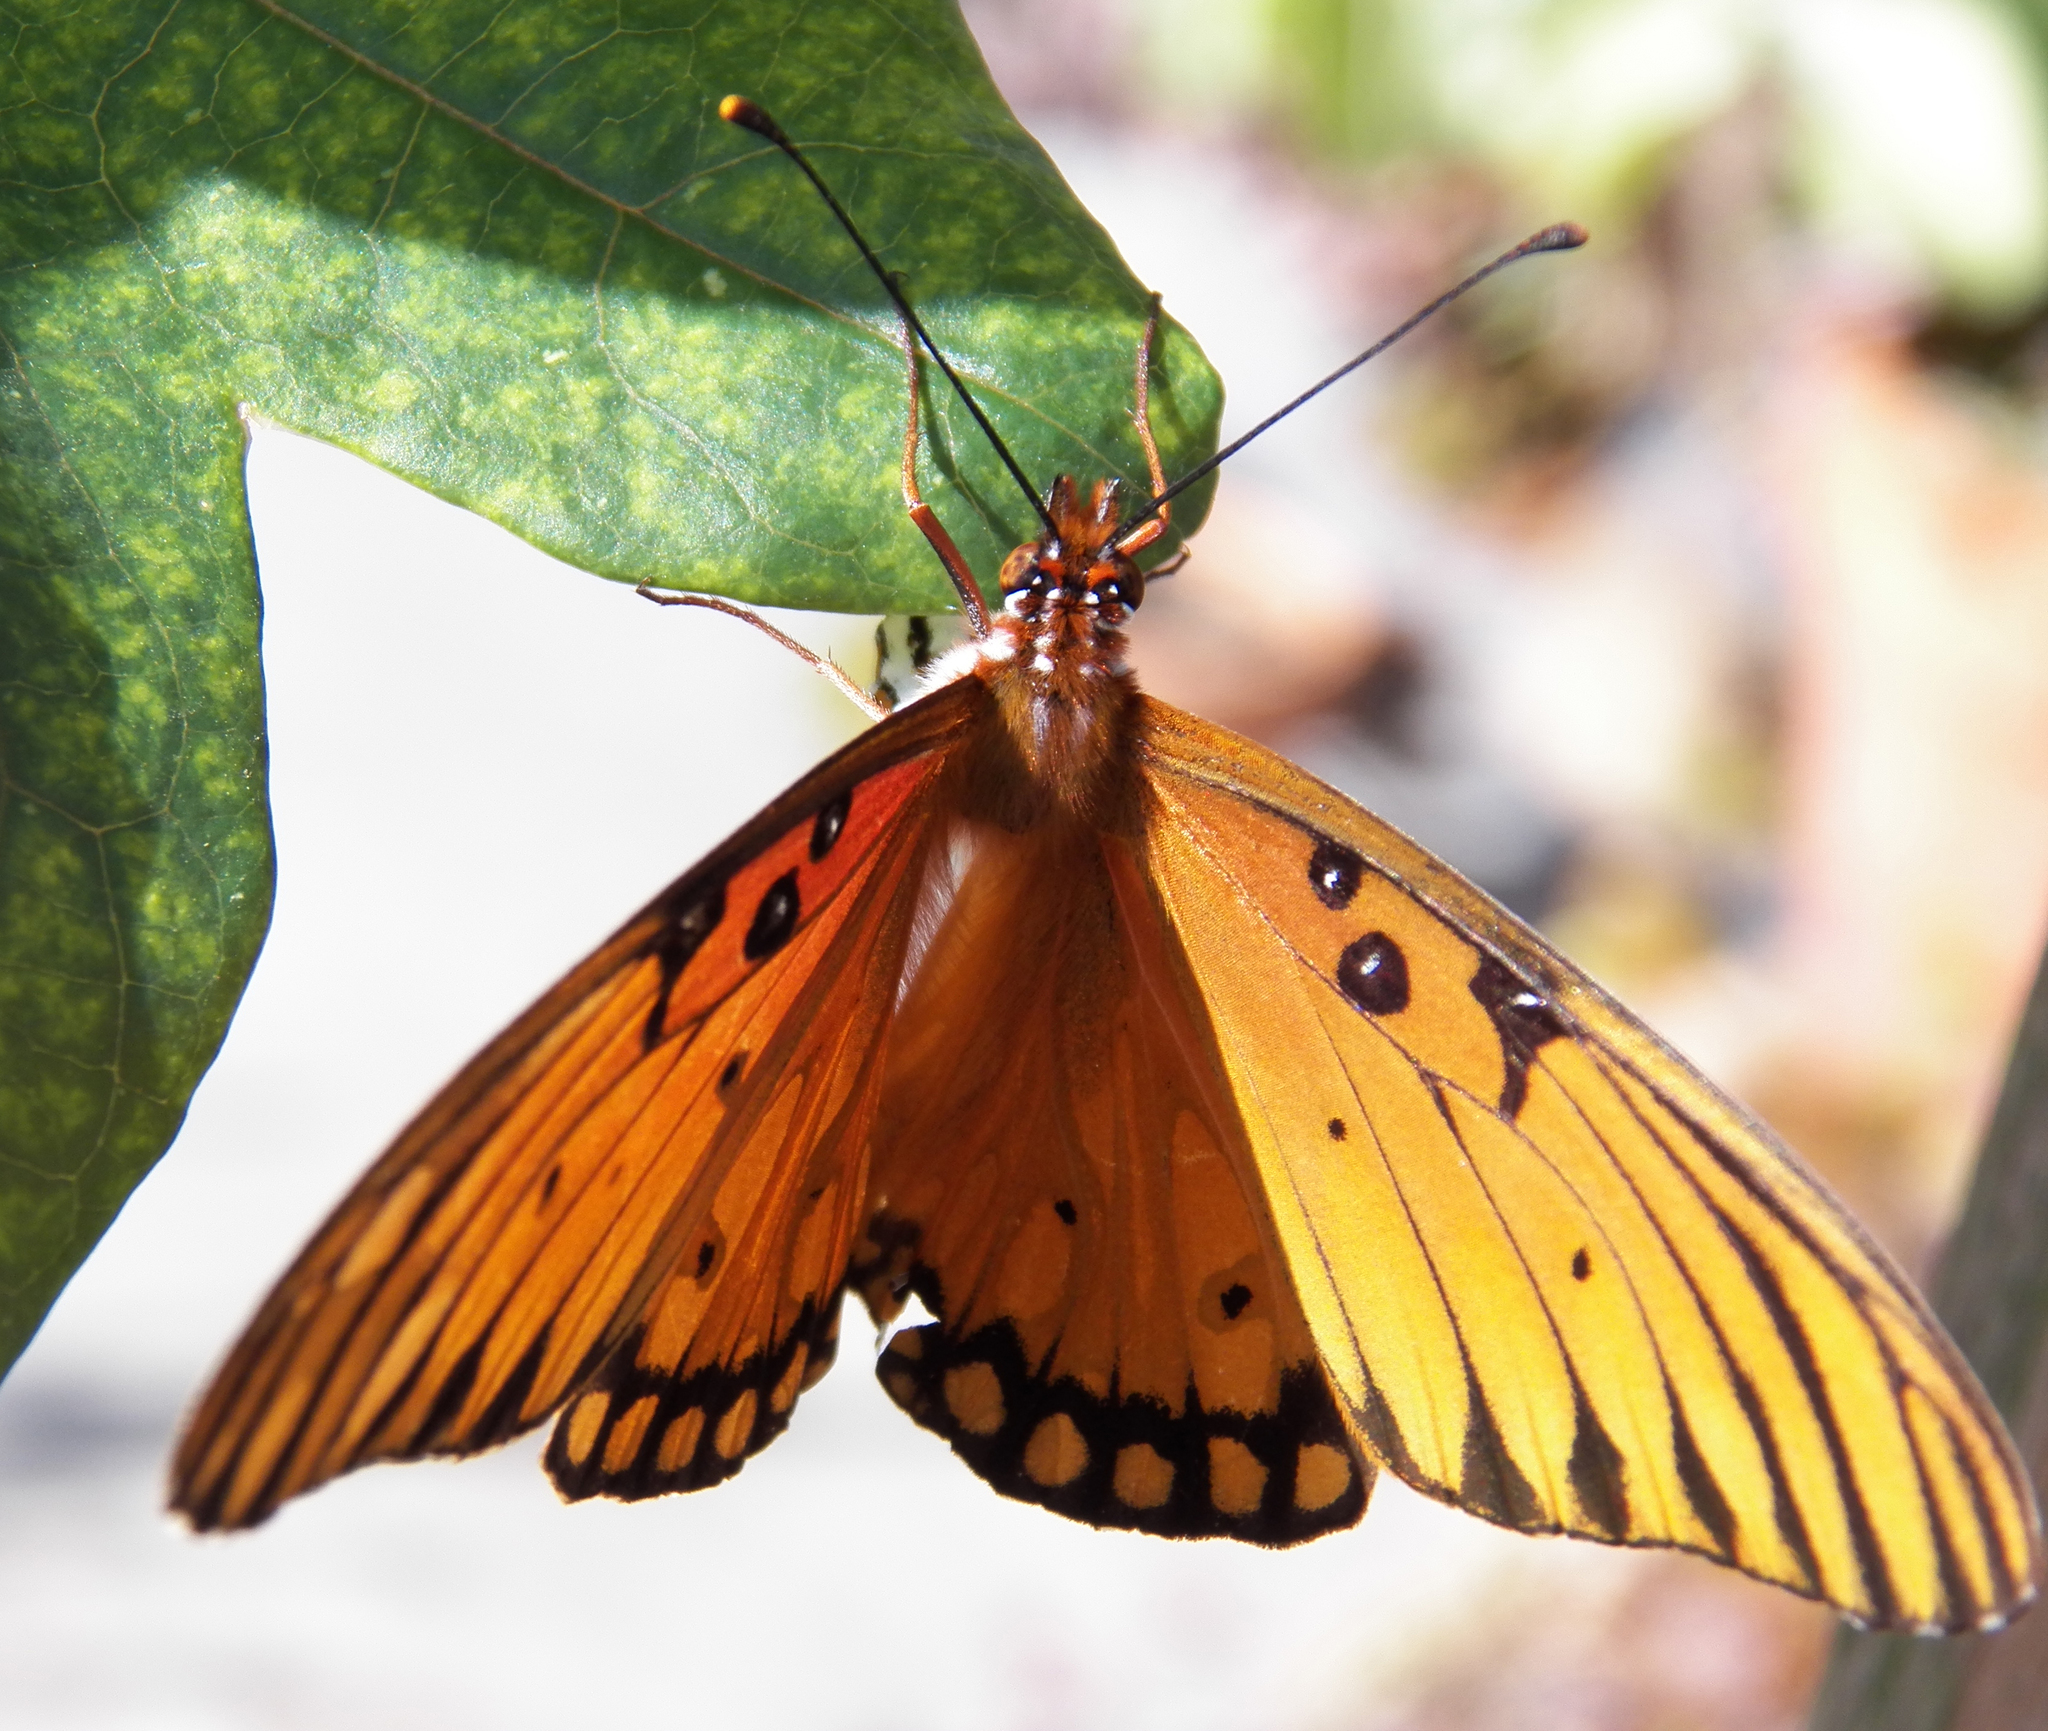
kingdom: Animalia
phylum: Arthropoda
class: Insecta
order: Lepidoptera
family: Nymphalidae
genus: Dione
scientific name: Dione vanillae
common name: Gulf fritillary
